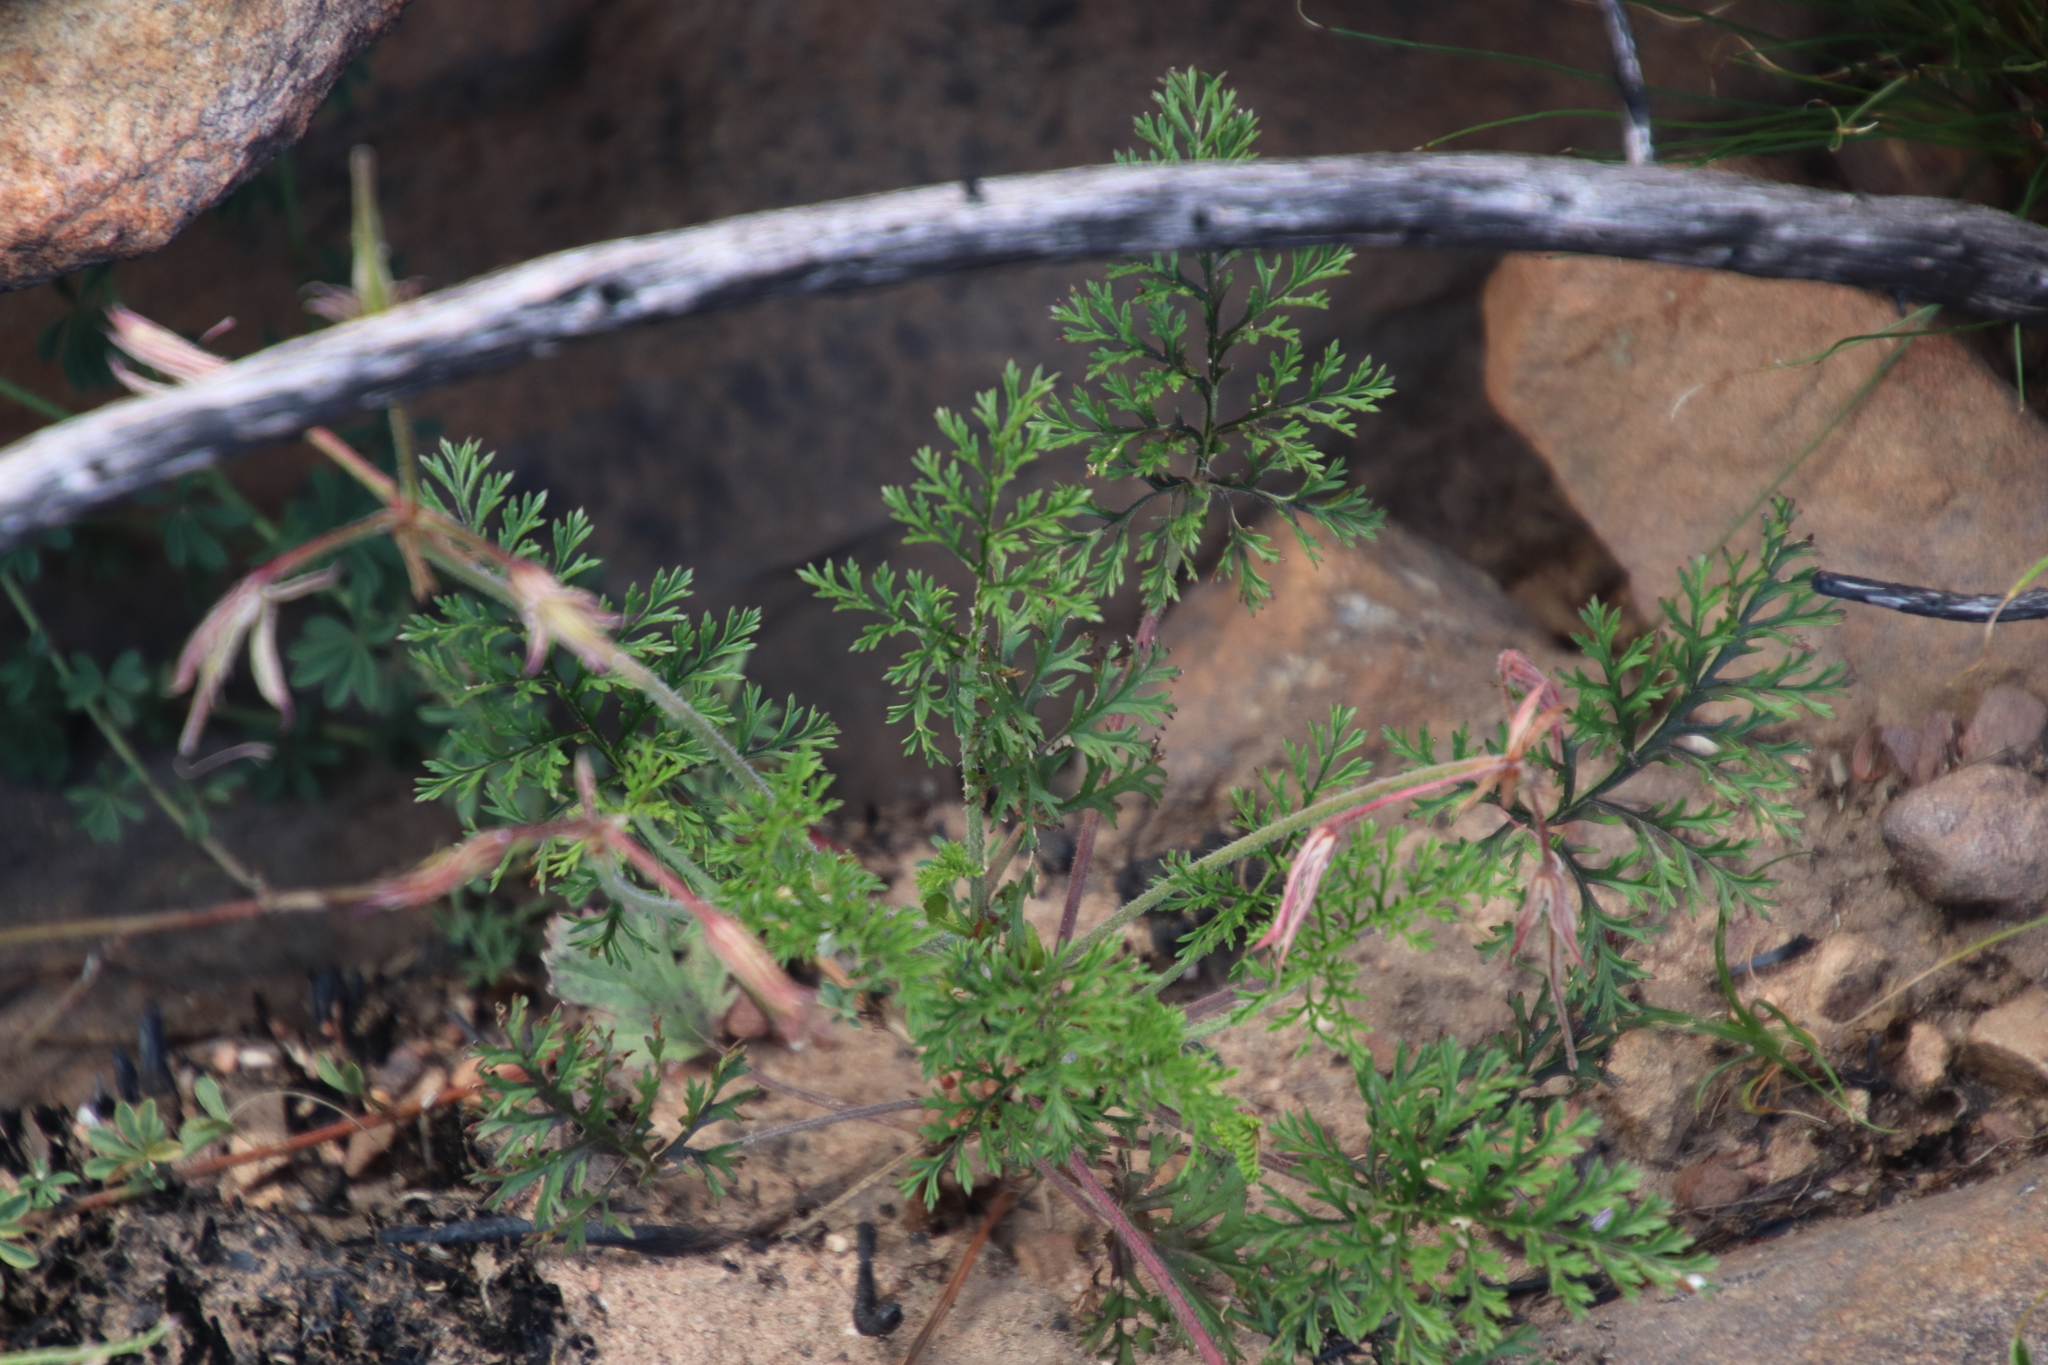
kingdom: Plantae
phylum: Tracheophyta
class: Magnoliopsida
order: Geraniales
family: Geraniaceae
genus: Pelargonium
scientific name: Pelargonium myrrhifolium
